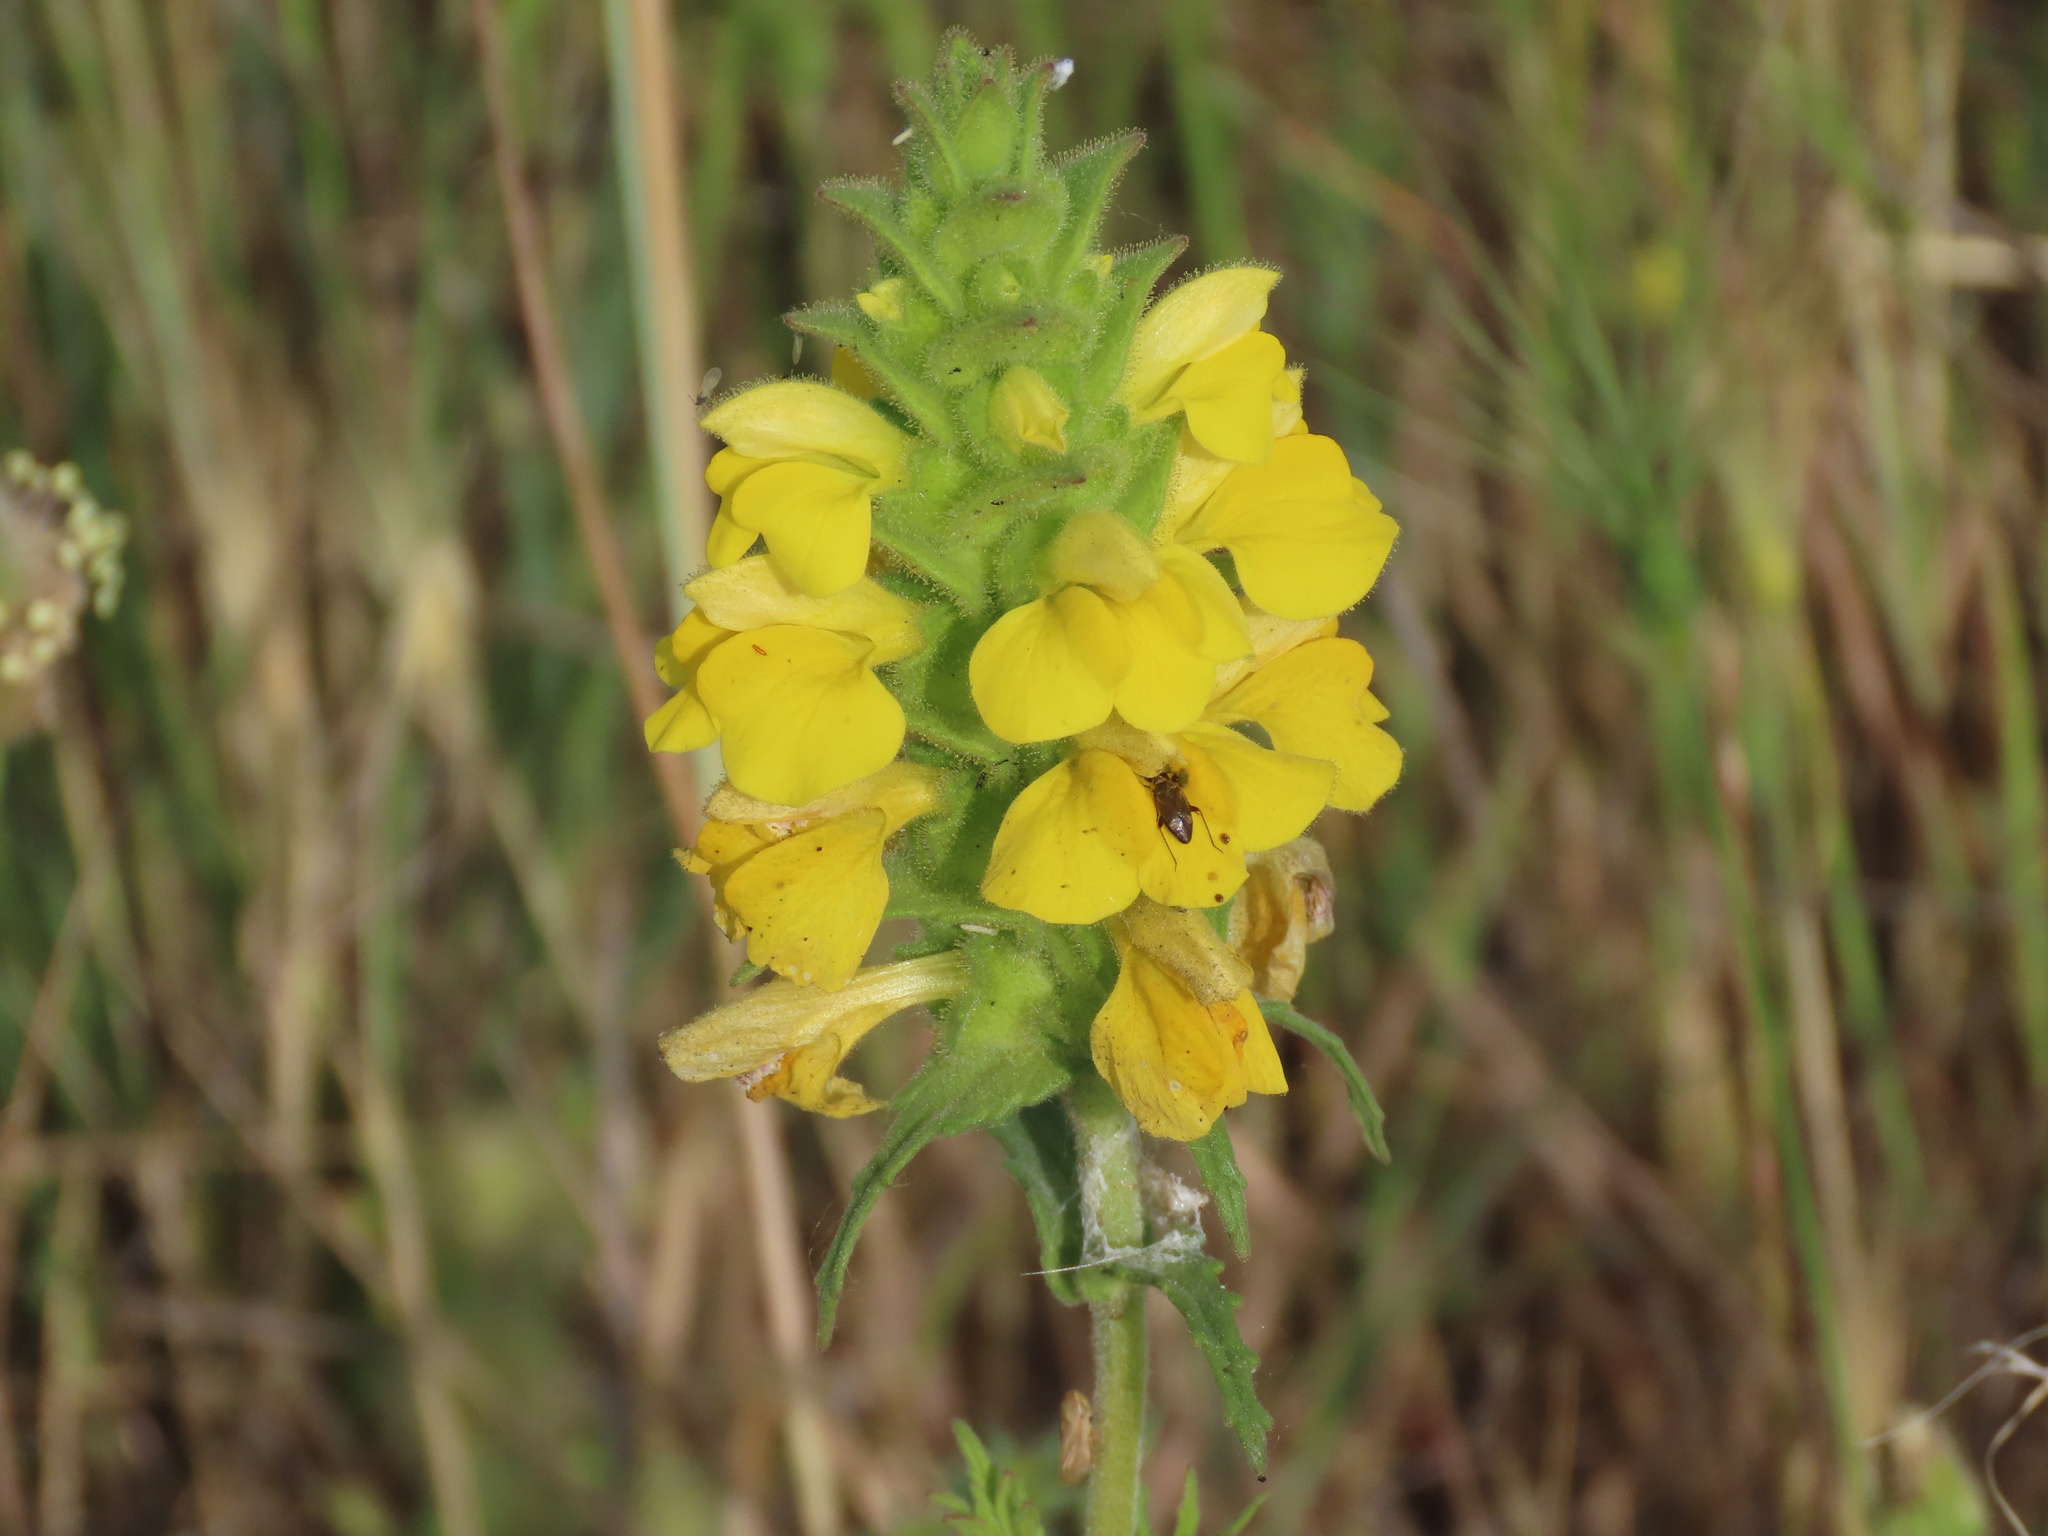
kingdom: Plantae
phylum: Tracheophyta
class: Magnoliopsida
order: Lamiales
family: Orobanchaceae
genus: Bellardia
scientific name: Bellardia trixago
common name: Mediterranean lineseed
